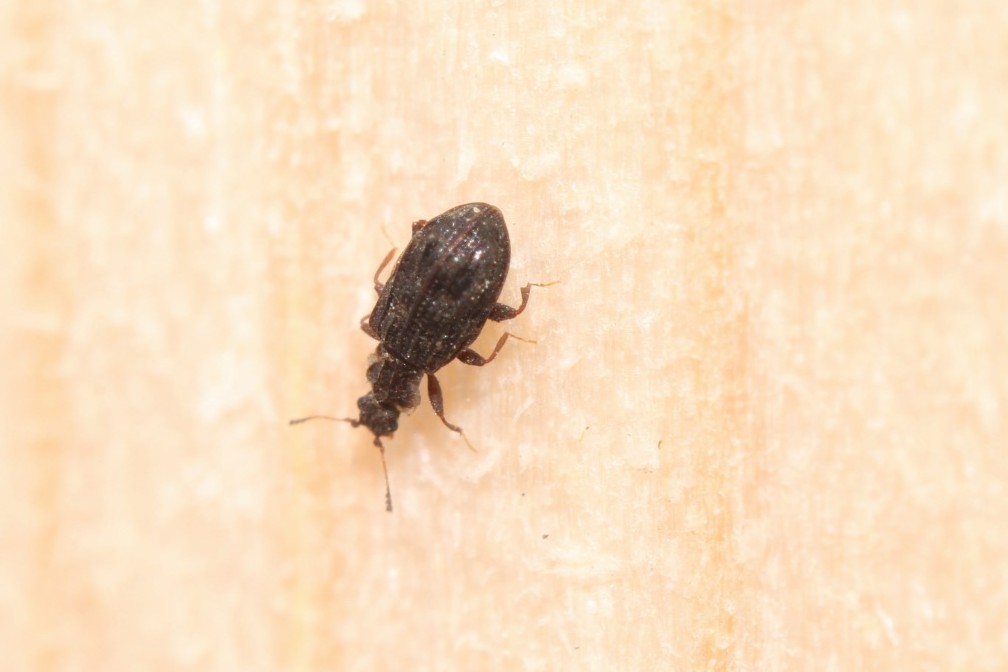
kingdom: Animalia
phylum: Arthropoda
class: Insecta
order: Coleoptera
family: Latridiidae
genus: Cartodere
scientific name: Cartodere nodifer
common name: Humpbacked minute scavenger beetle
